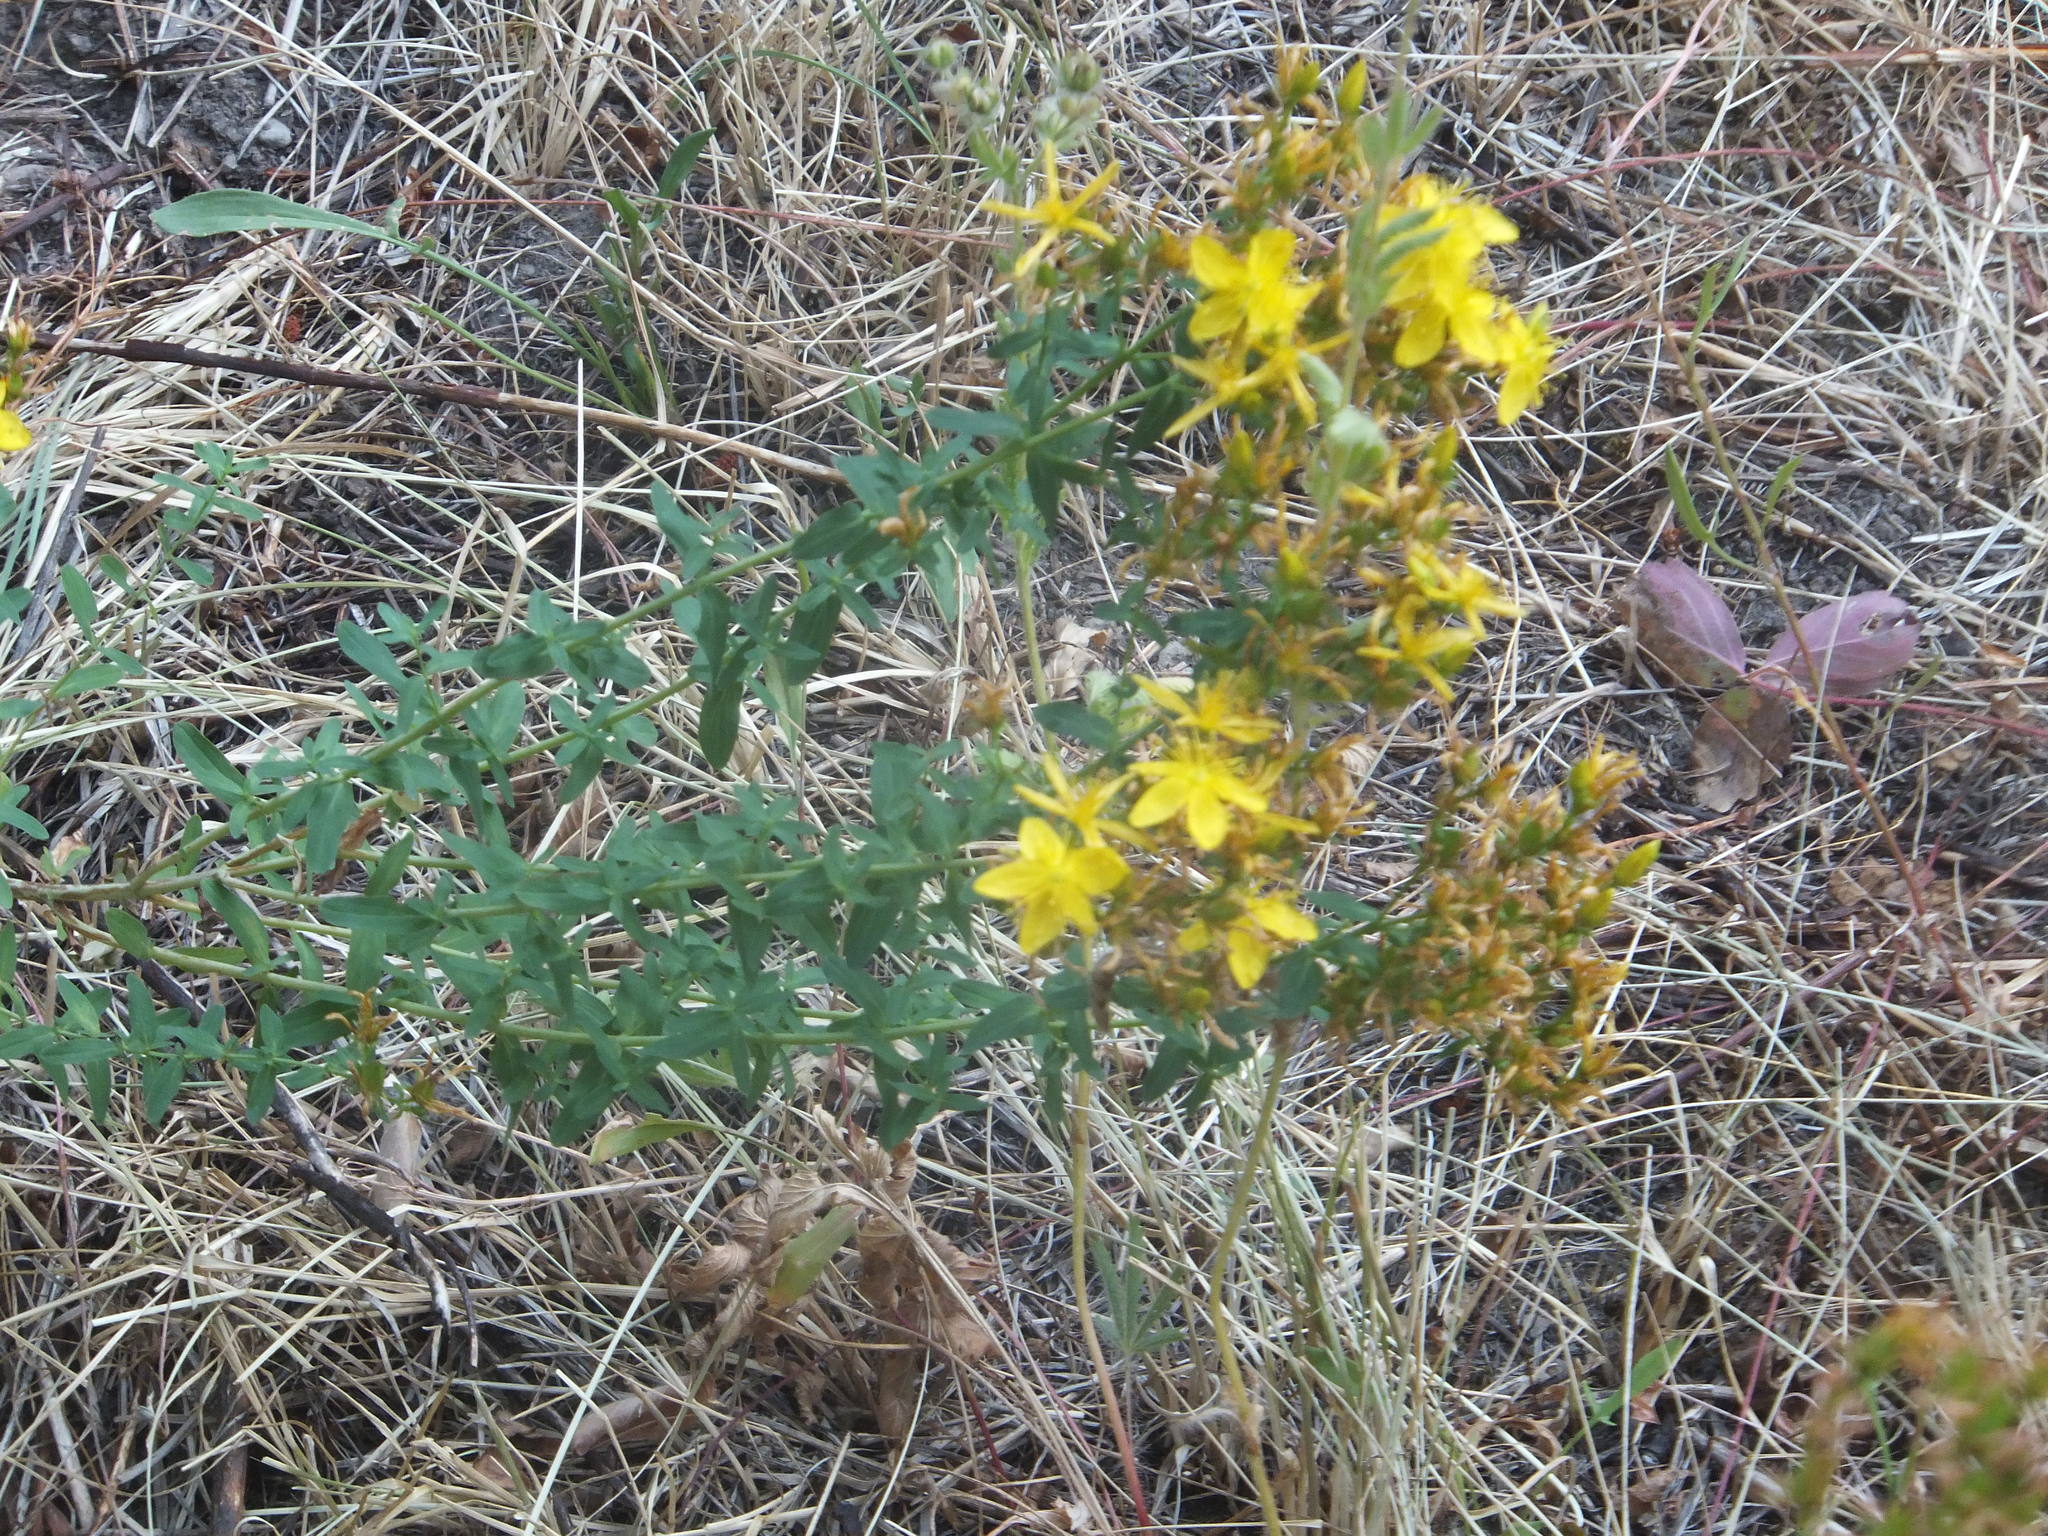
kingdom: Plantae
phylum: Tracheophyta
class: Magnoliopsida
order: Malpighiales
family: Hypericaceae
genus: Hypericum
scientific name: Hypericum perforatum
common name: Common st. johnswort
